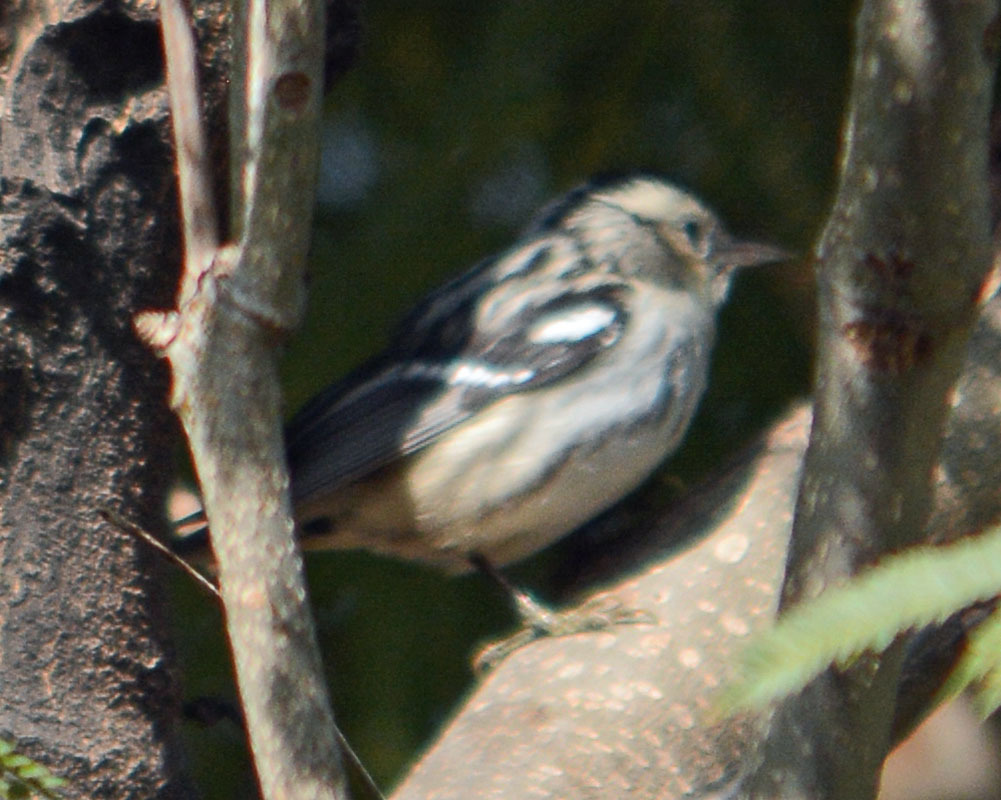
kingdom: Animalia
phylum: Chordata
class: Aves
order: Passeriformes
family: Parulidae
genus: Mniotilta
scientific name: Mniotilta varia
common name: Black-and-white warbler
